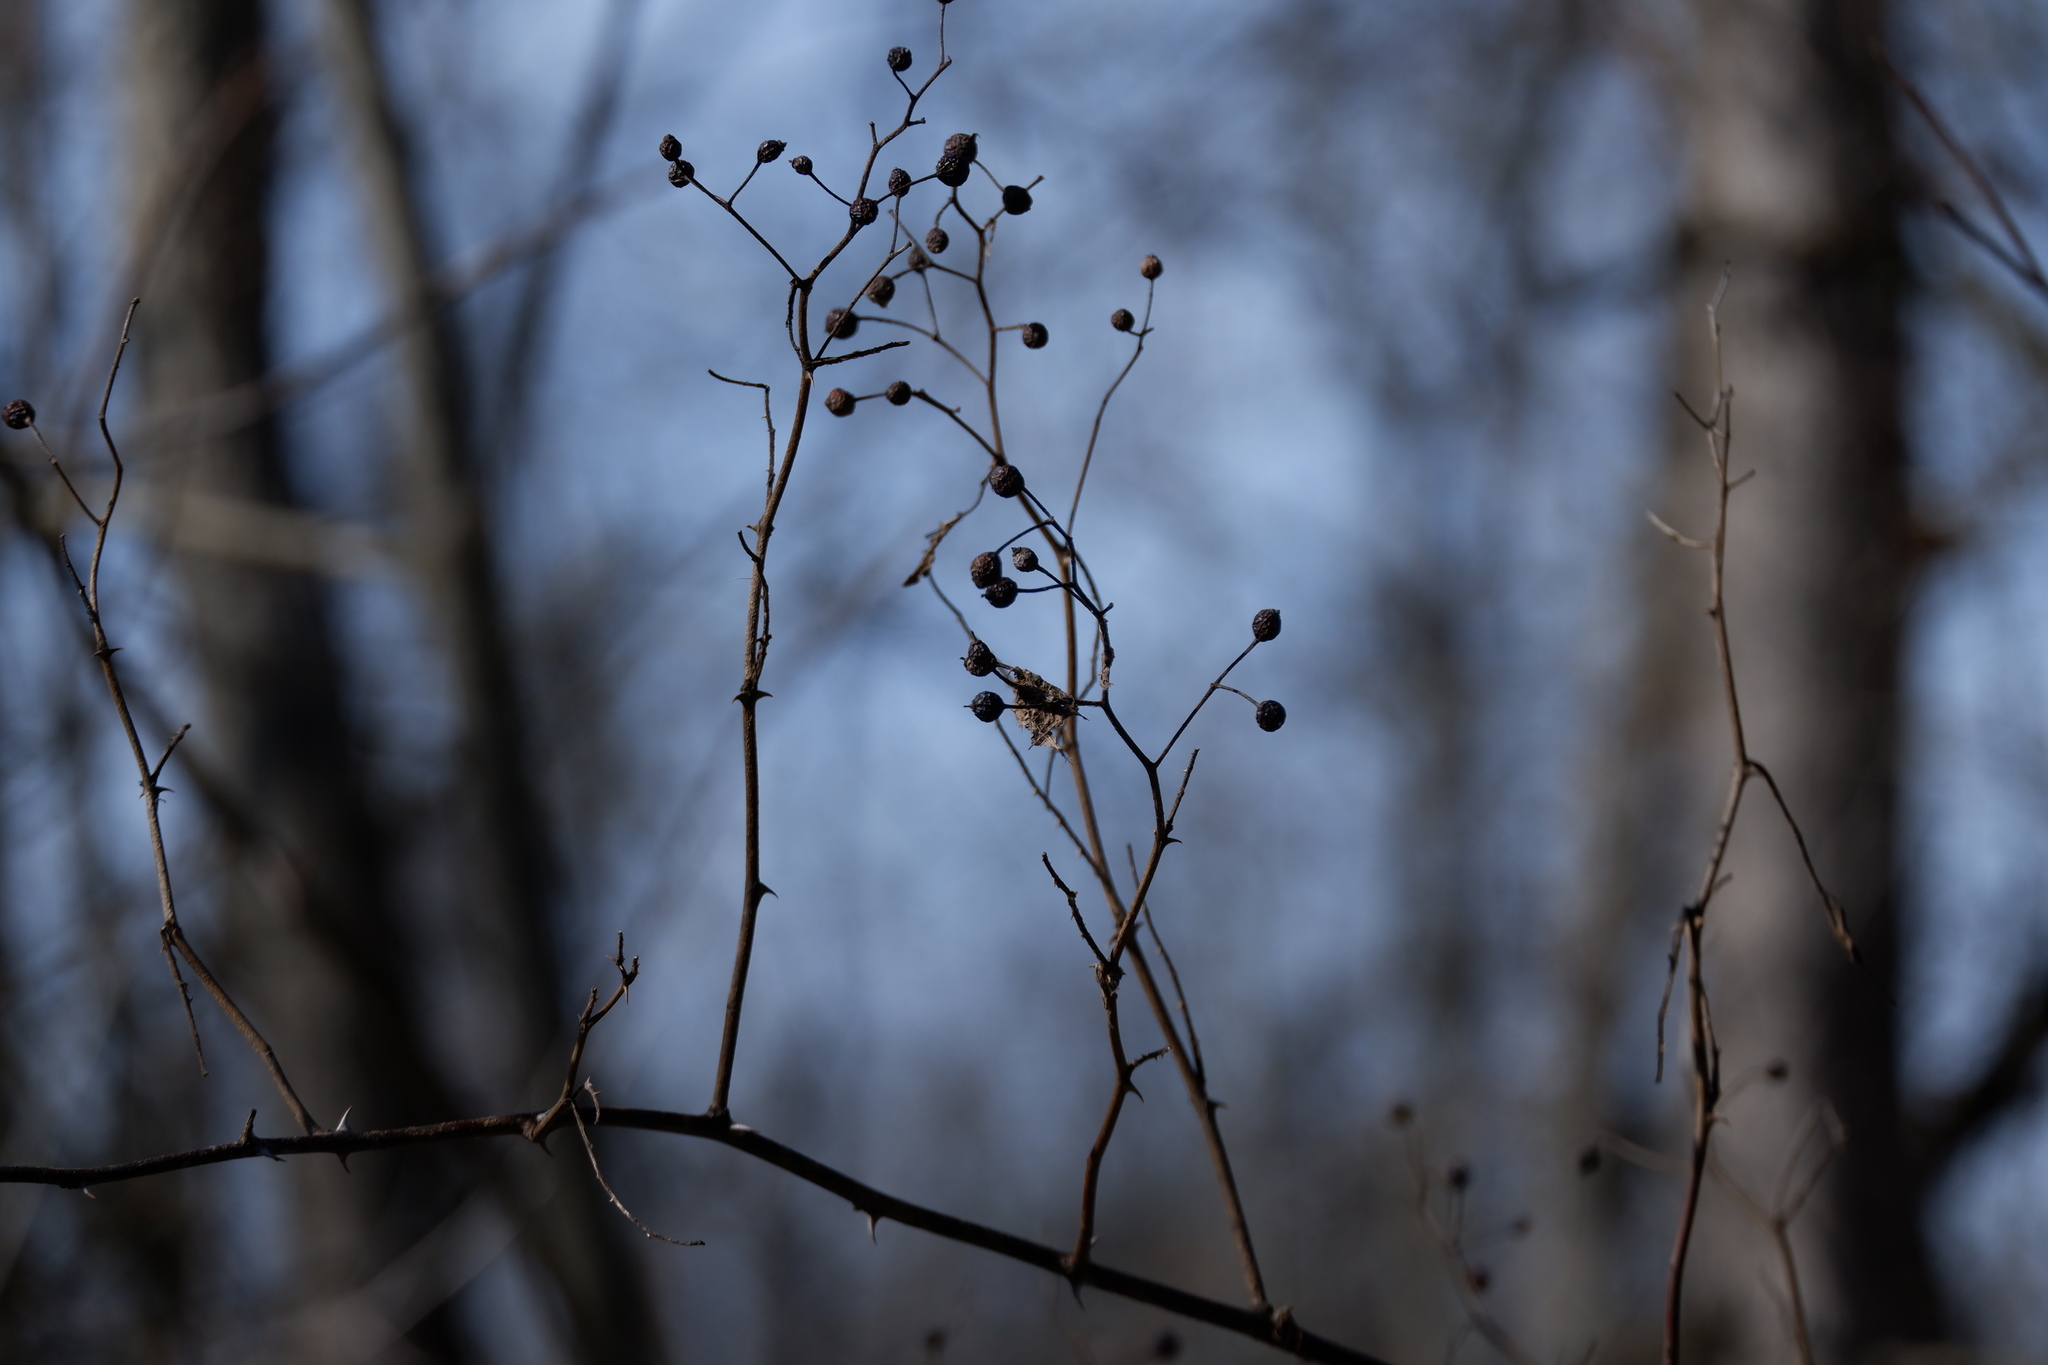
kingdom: Plantae
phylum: Tracheophyta
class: Magnoliopsida
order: Rosales
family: Rosaceae
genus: Rosa
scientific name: Rosa multiflora
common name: Multiflora rose
